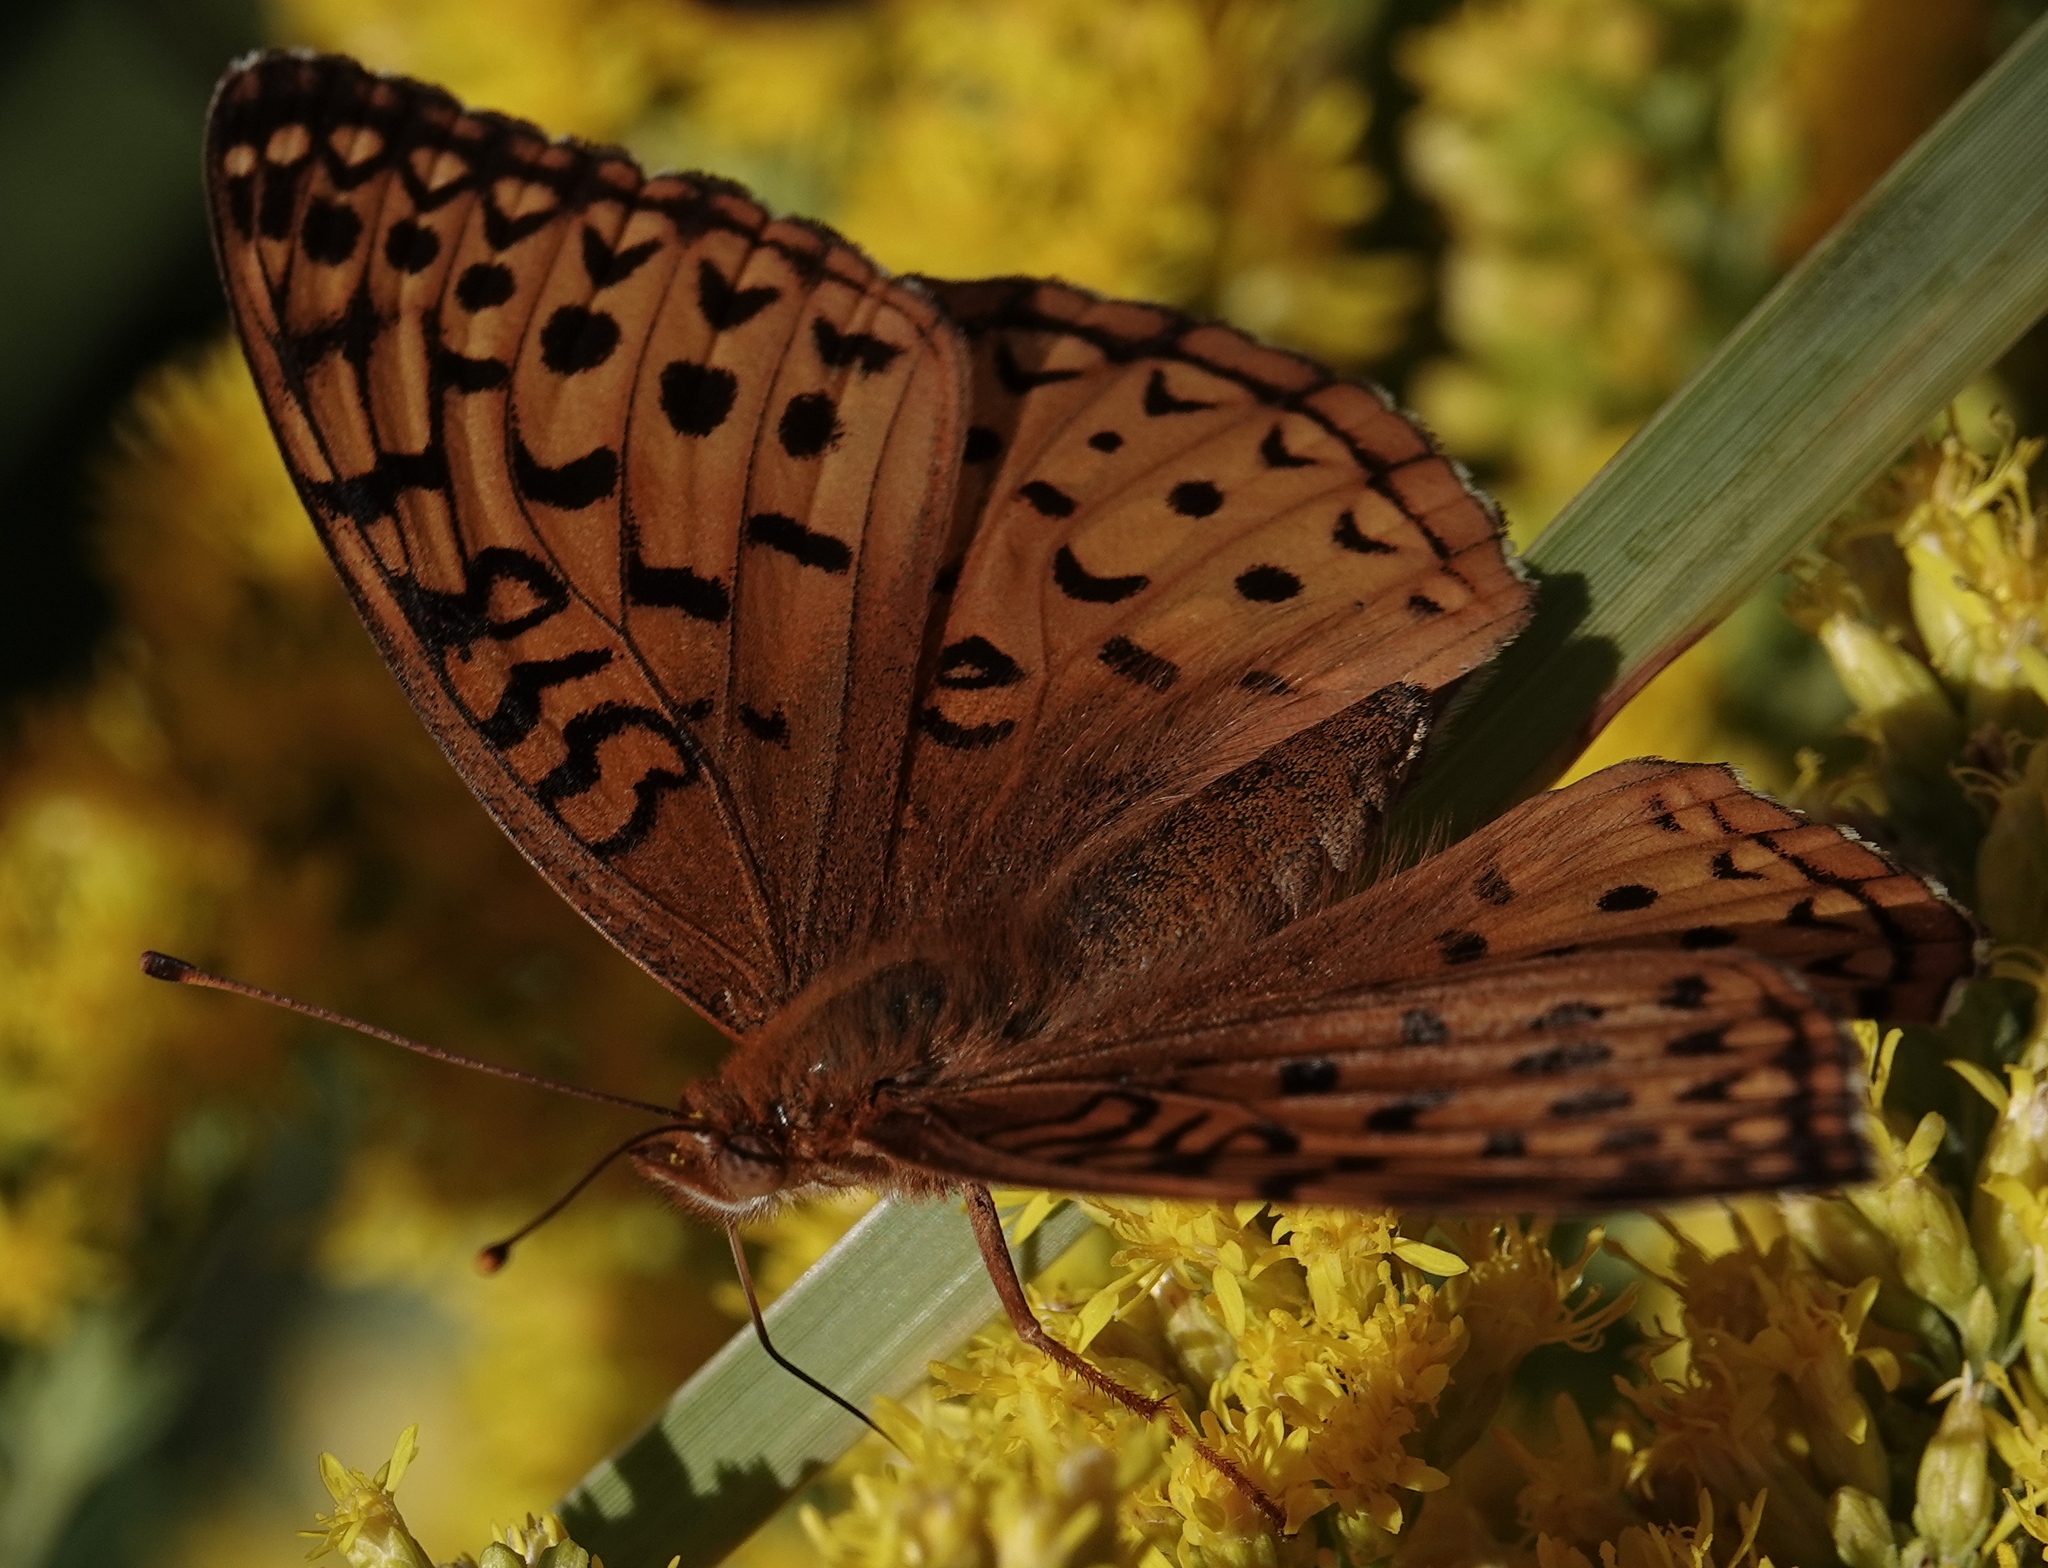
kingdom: Animalia
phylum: Arthropoda
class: Insecta
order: Lepidoptera
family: Nymphalidae
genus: Speyeria
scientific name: Speyeria aphrodite
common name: Aphrodite friitllary
